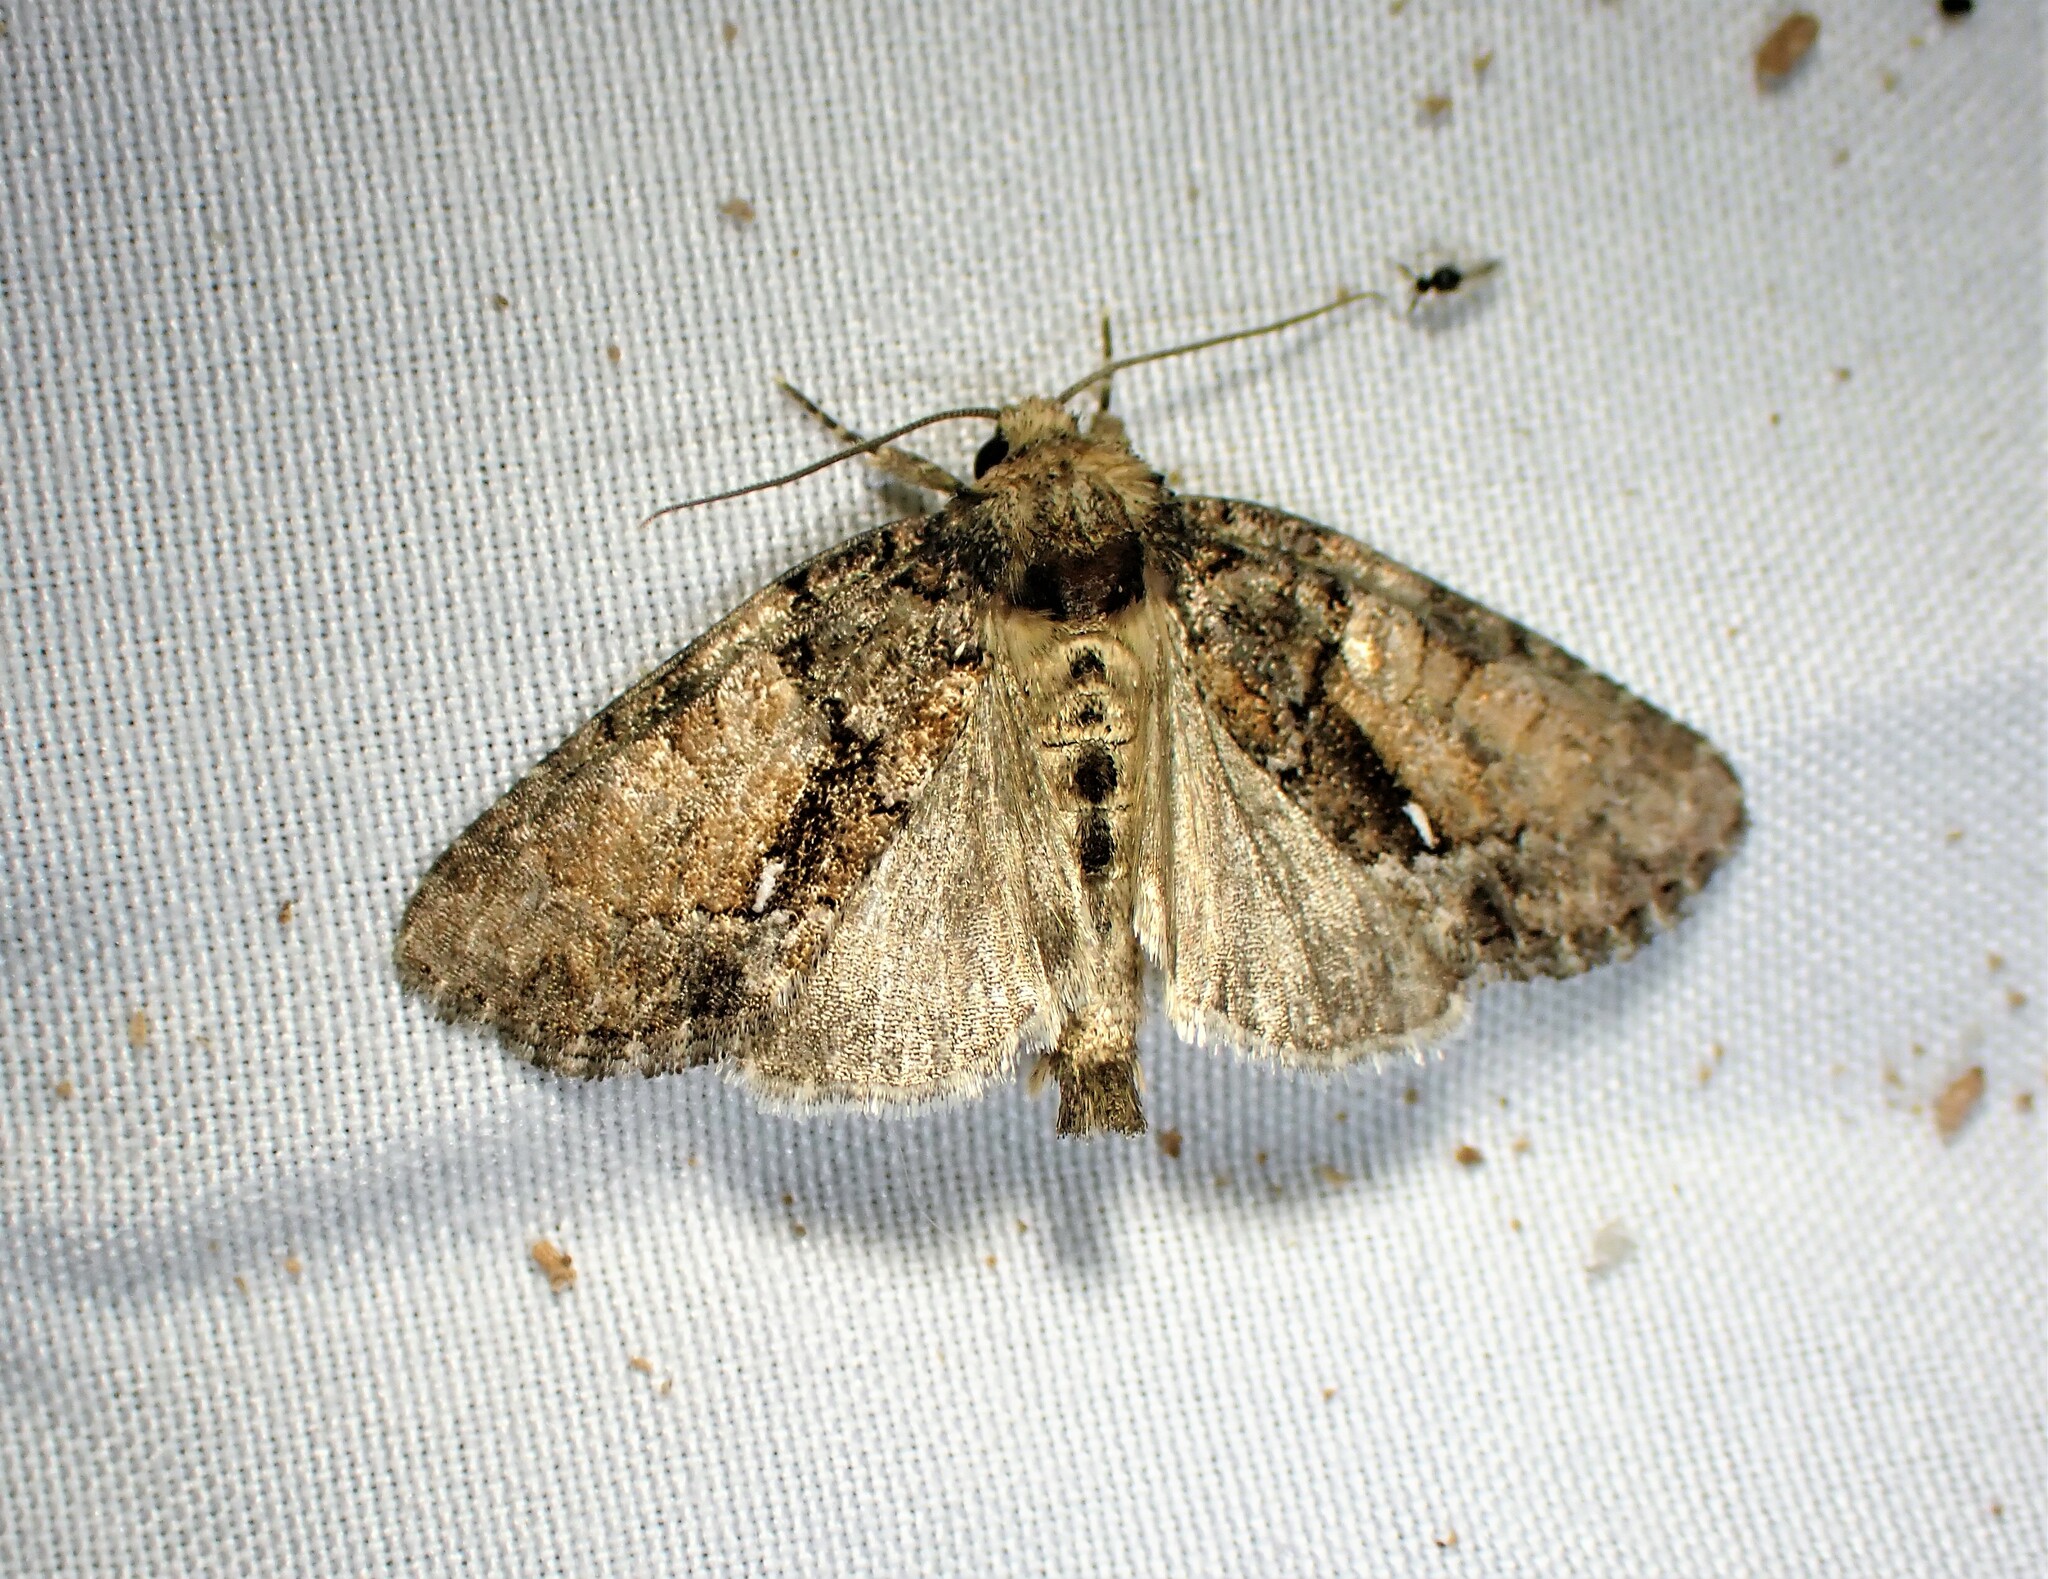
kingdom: Animalia
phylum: Arthropoda
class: Insecta
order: Lepidoptera
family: Noctuidae
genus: Chytonix
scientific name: Chytonix palliatricula
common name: Cloaked marvel
